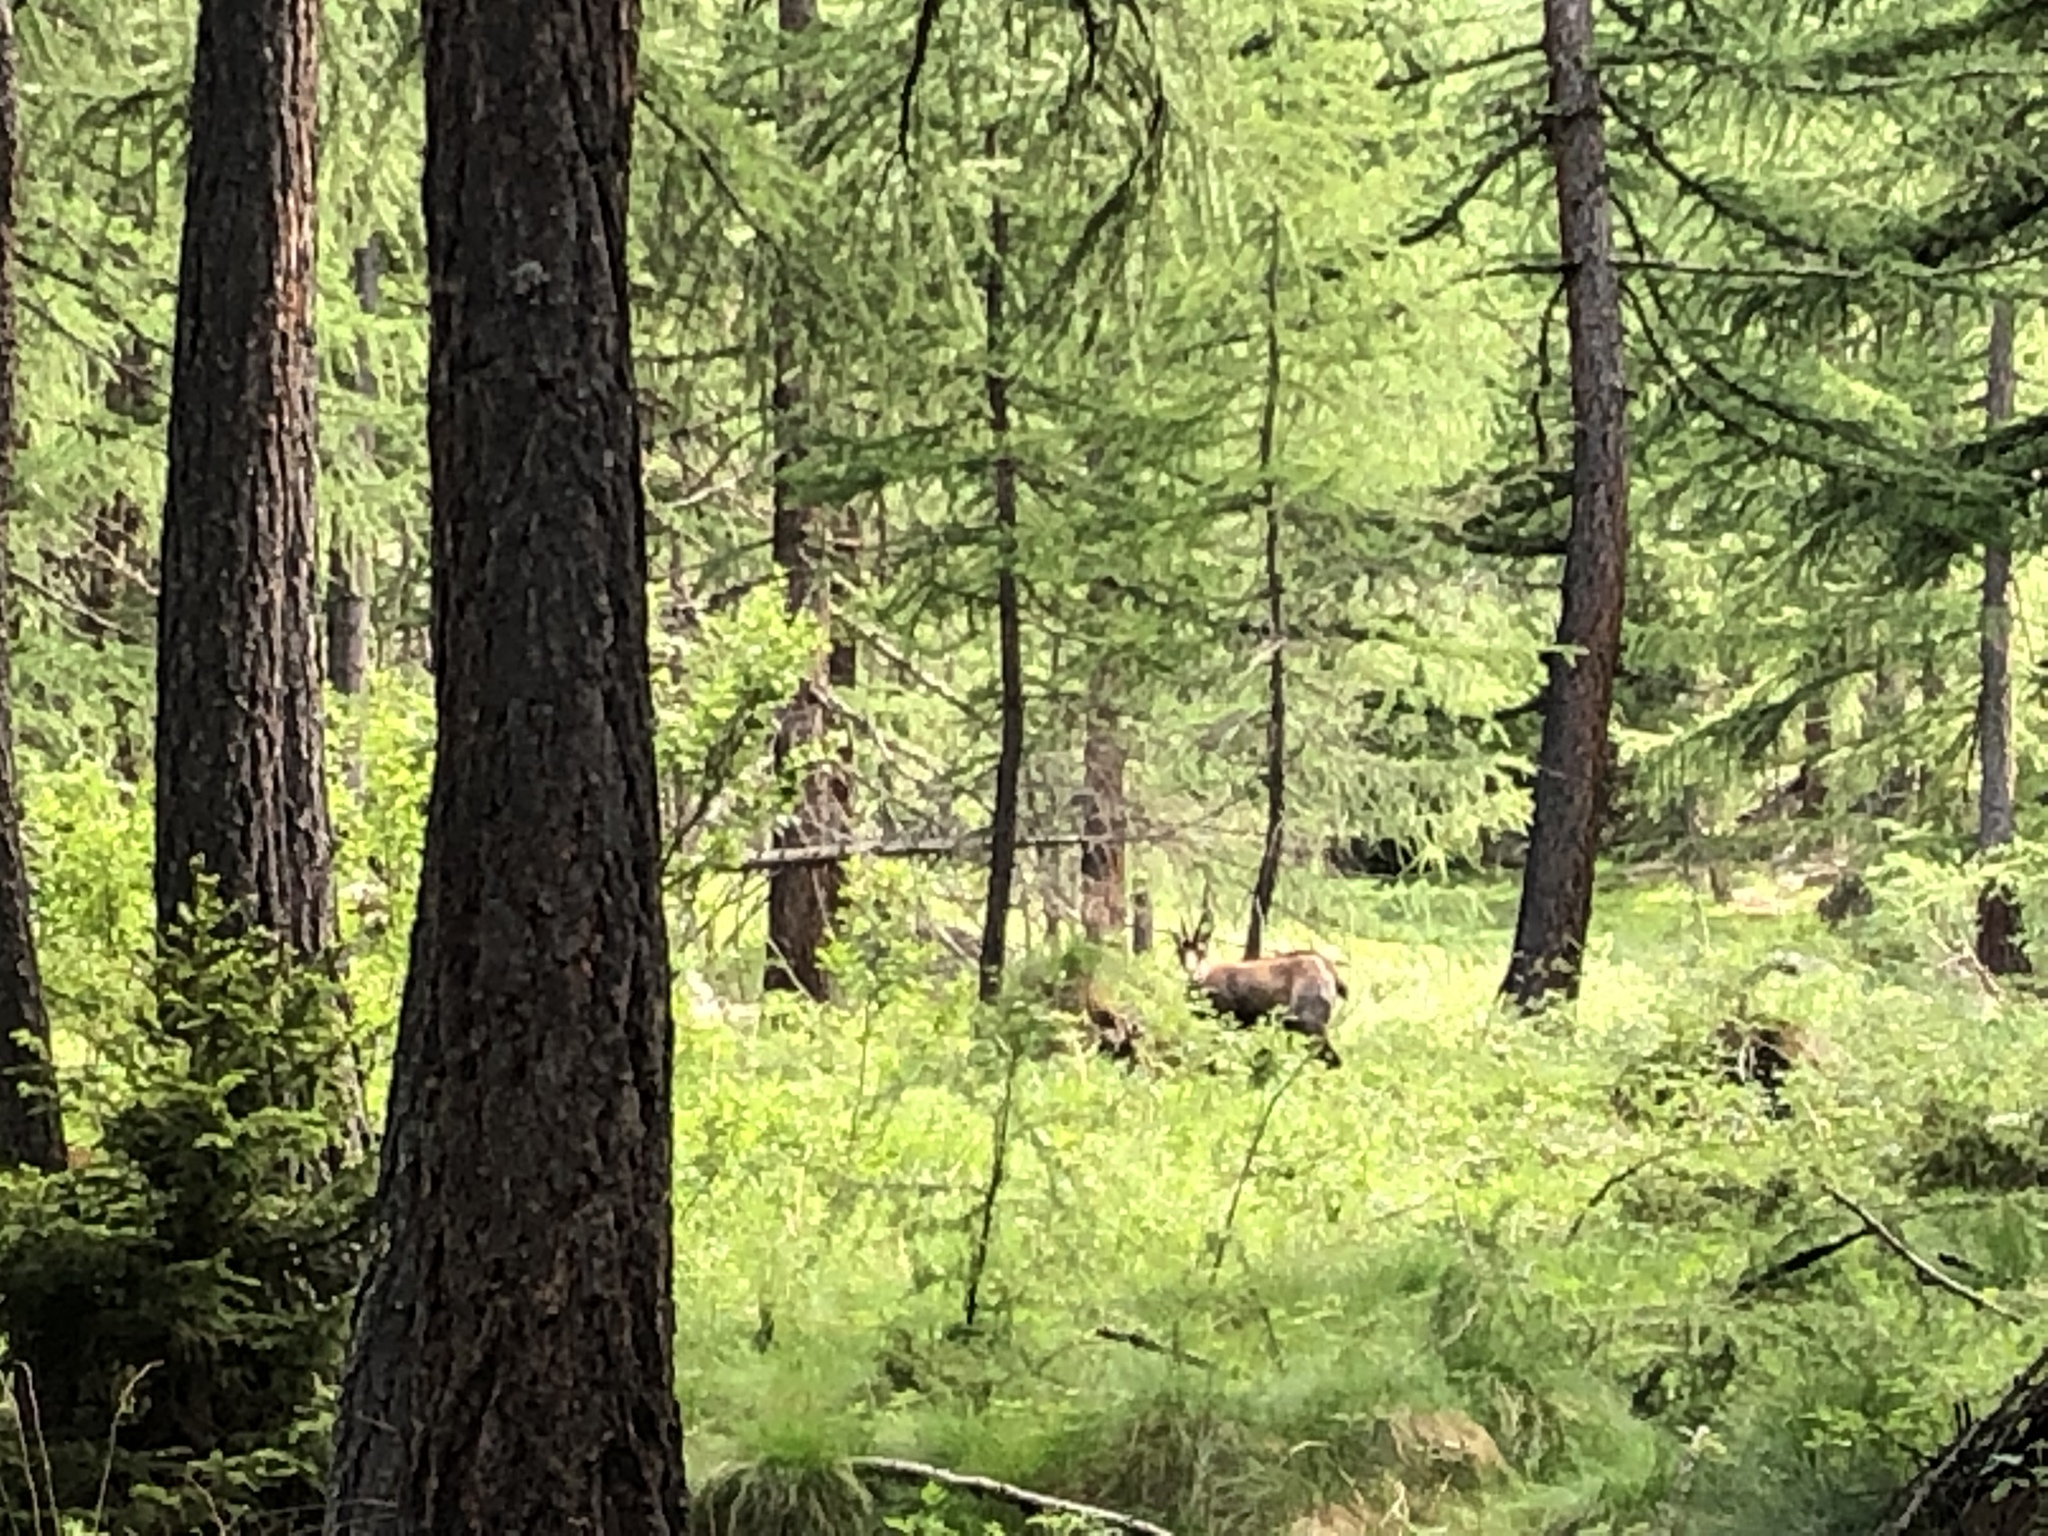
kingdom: Animalia
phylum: Chordata
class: Mammalia
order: Artiodactyla
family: Bovidae
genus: Rupicapra
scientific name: Rupicapra rupicapra
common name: Chamois
